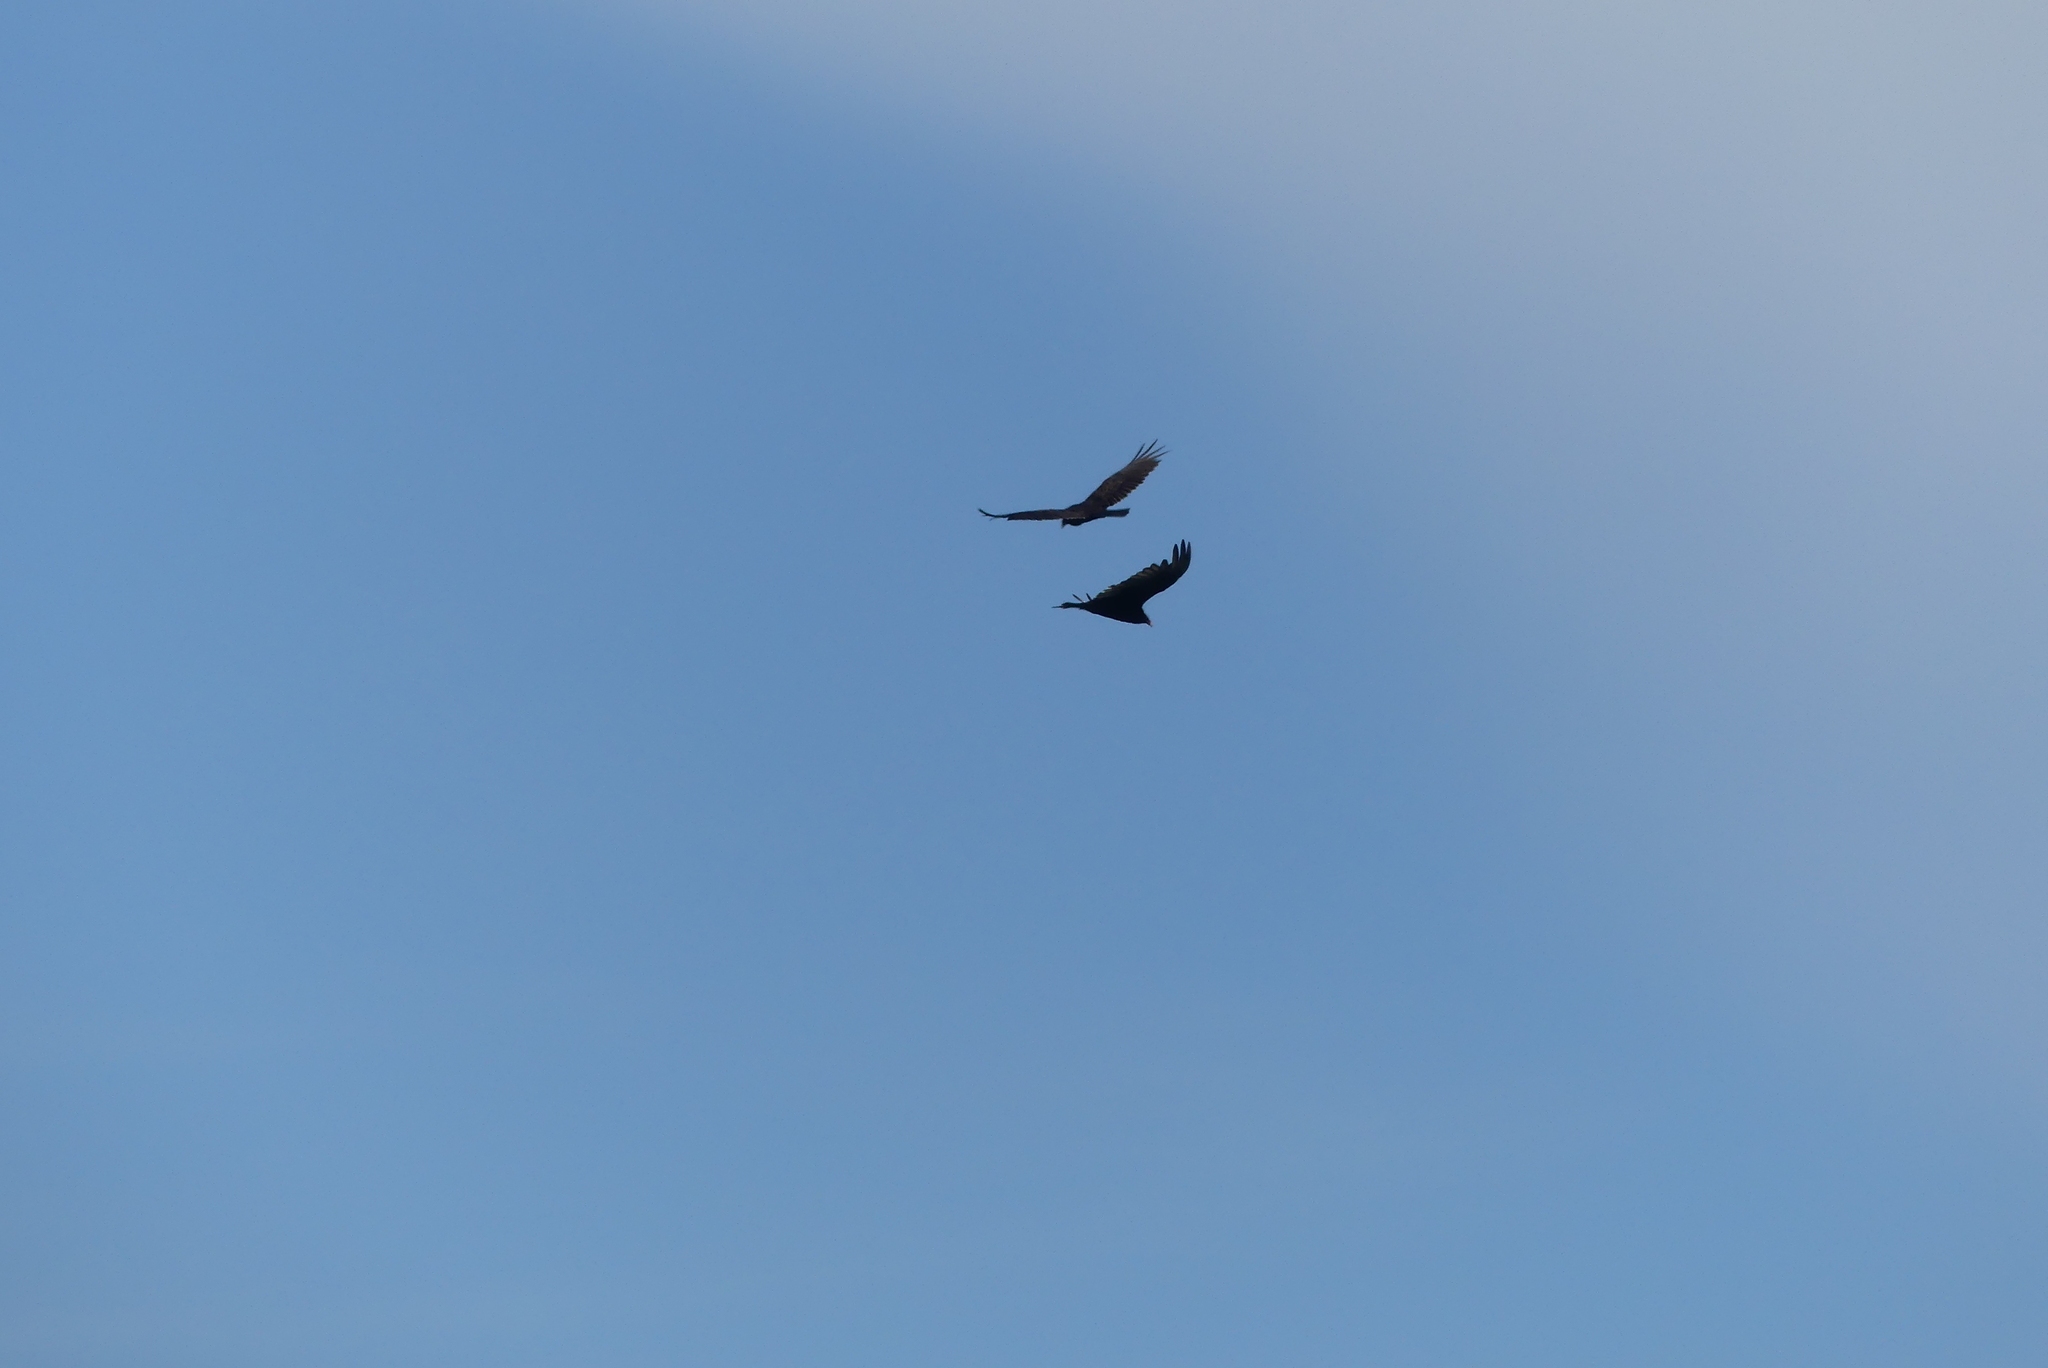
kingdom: Animalia
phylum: Chordata
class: Aves
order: Accipitriformes
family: Cathartidae
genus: Cathartes
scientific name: Cathartes aura
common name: Turkey vulture
